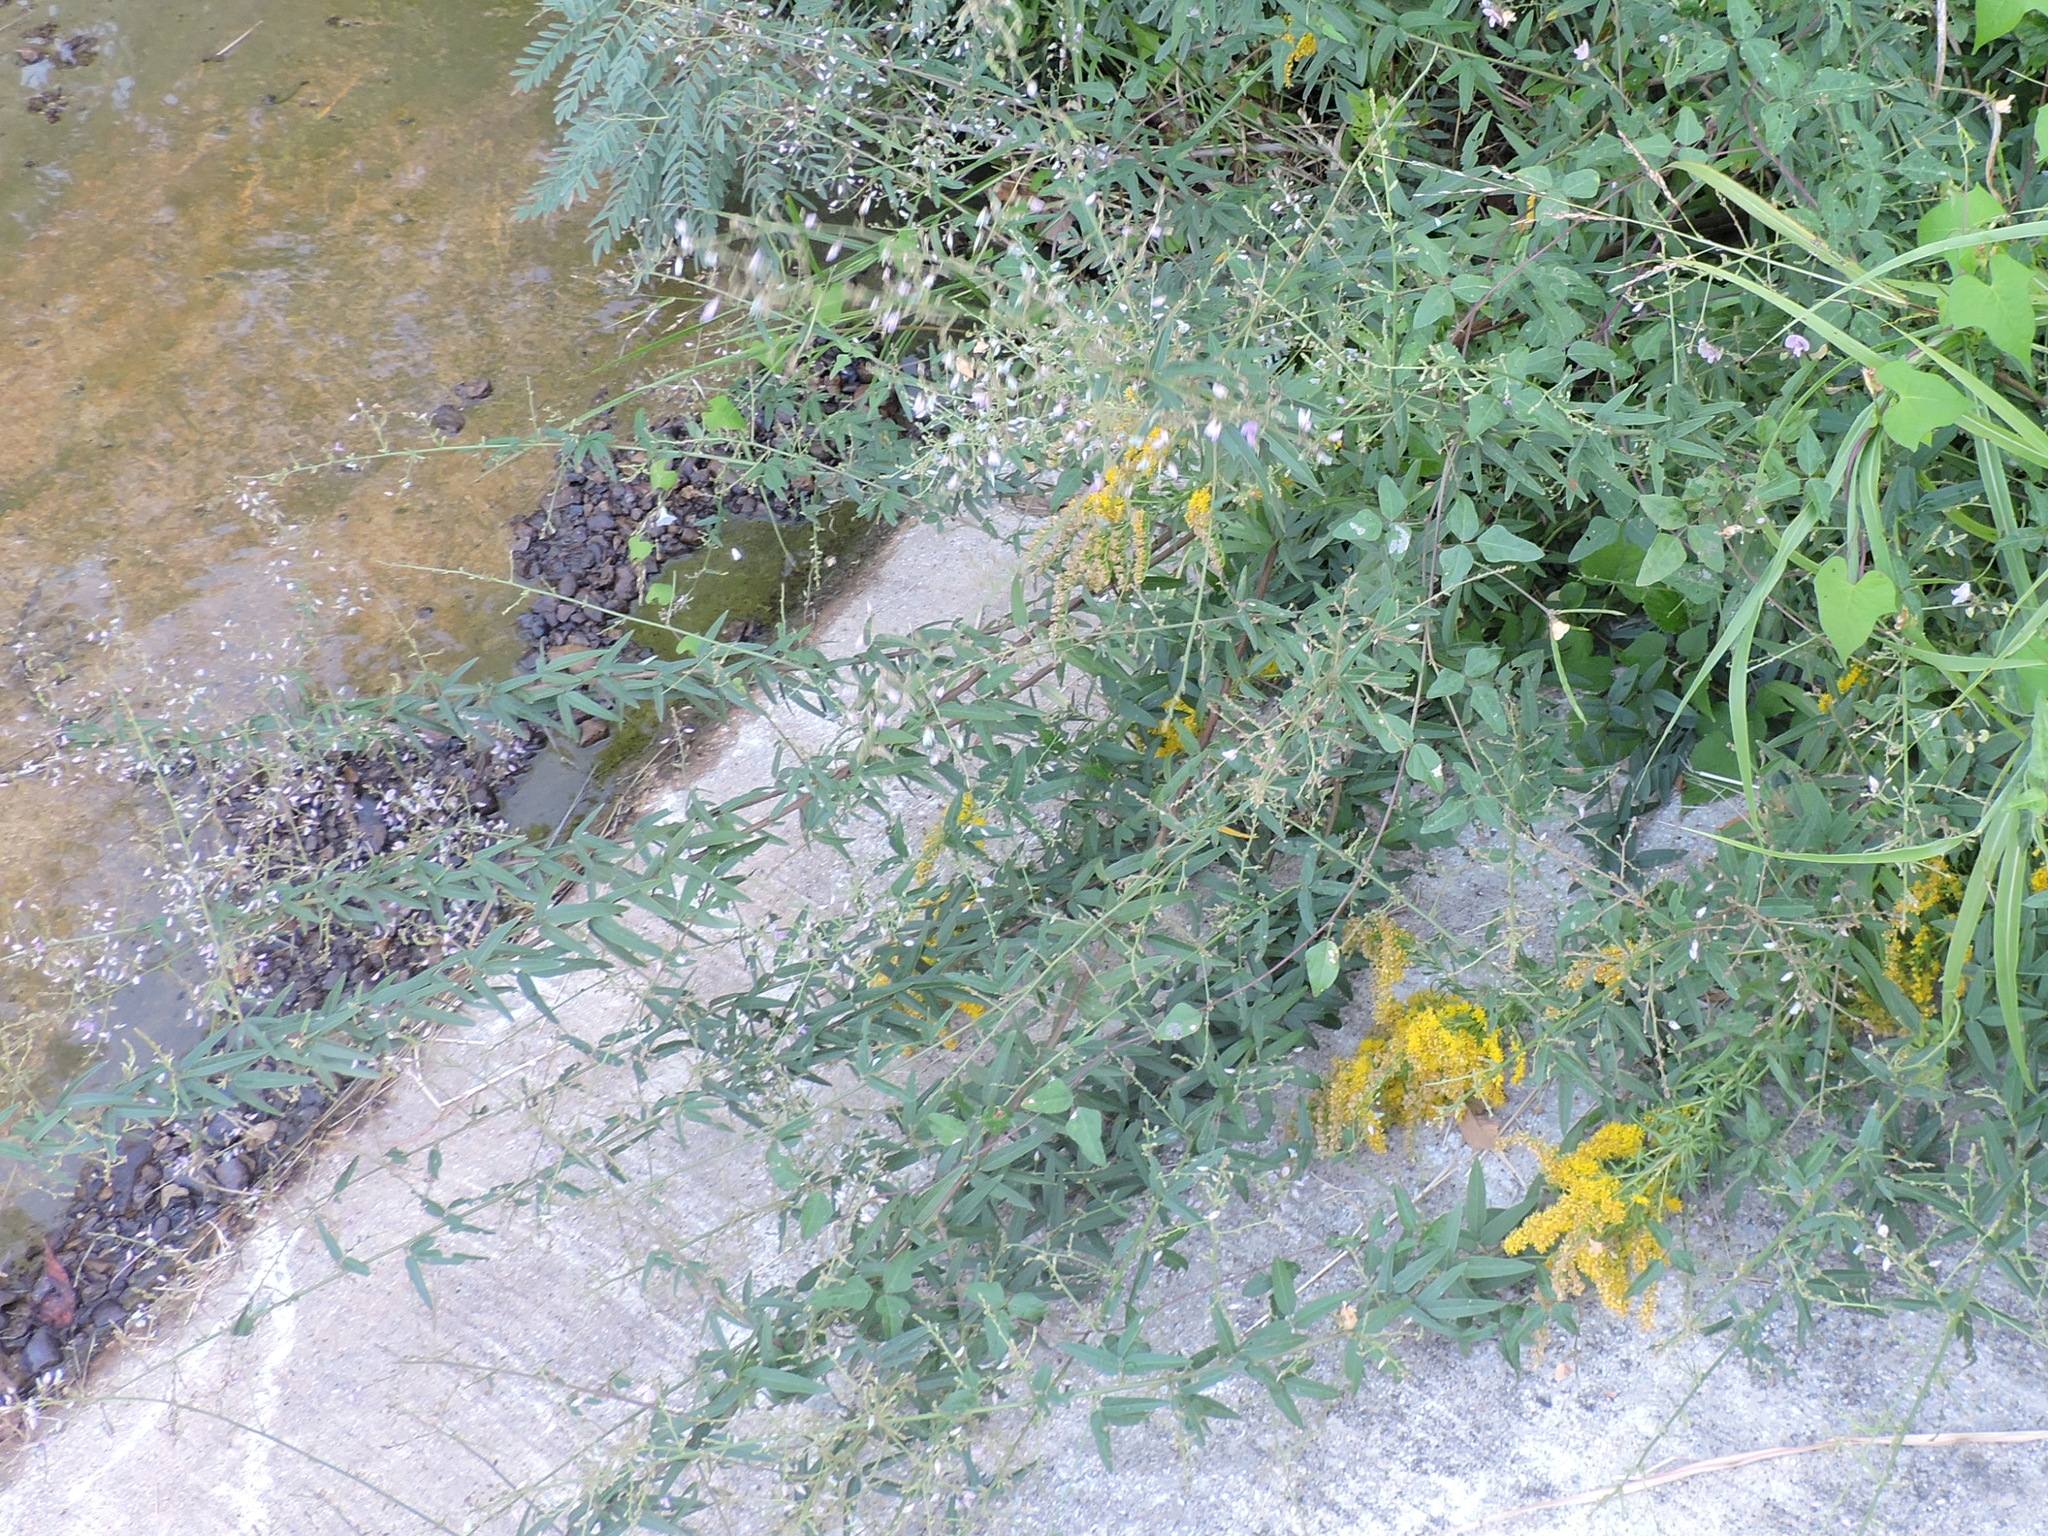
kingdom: Plantae
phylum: Tracheophyta
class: Magnoliopsida
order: Fabales
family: Fabaceae
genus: Desmodium
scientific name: Desmodium paniculatum
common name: Panicled tick-clover
